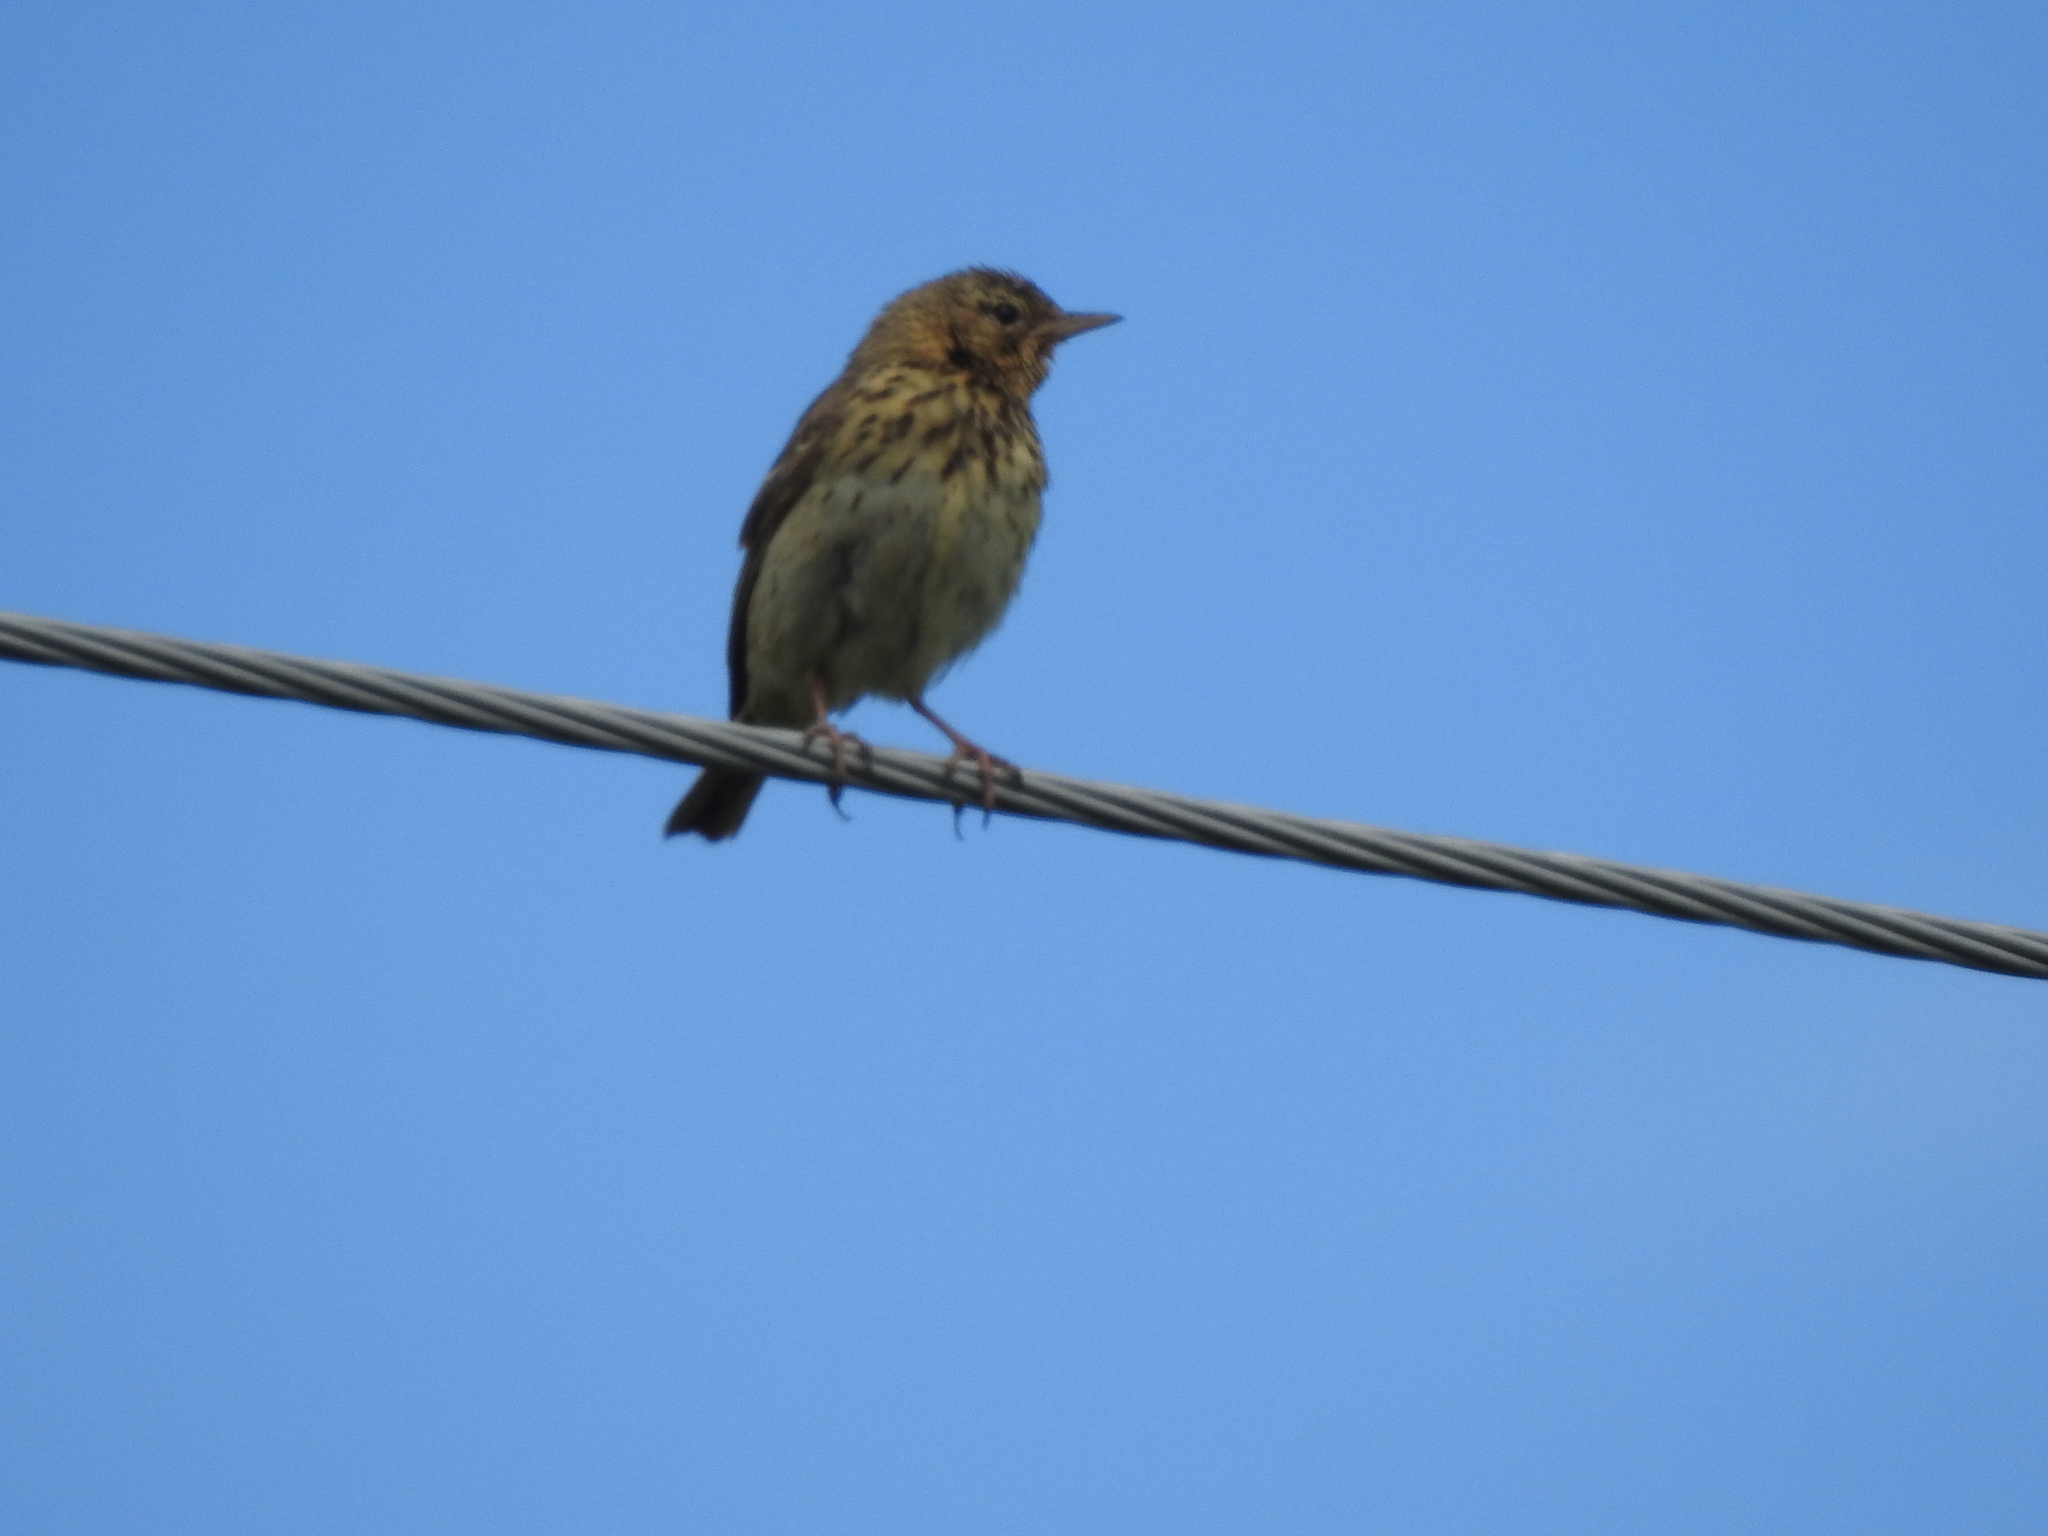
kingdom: Animalia
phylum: Chordata
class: Aves
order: Passeriformes
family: Motacillidae
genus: Anthus
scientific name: Anthus trivialis
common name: Tree pipit
